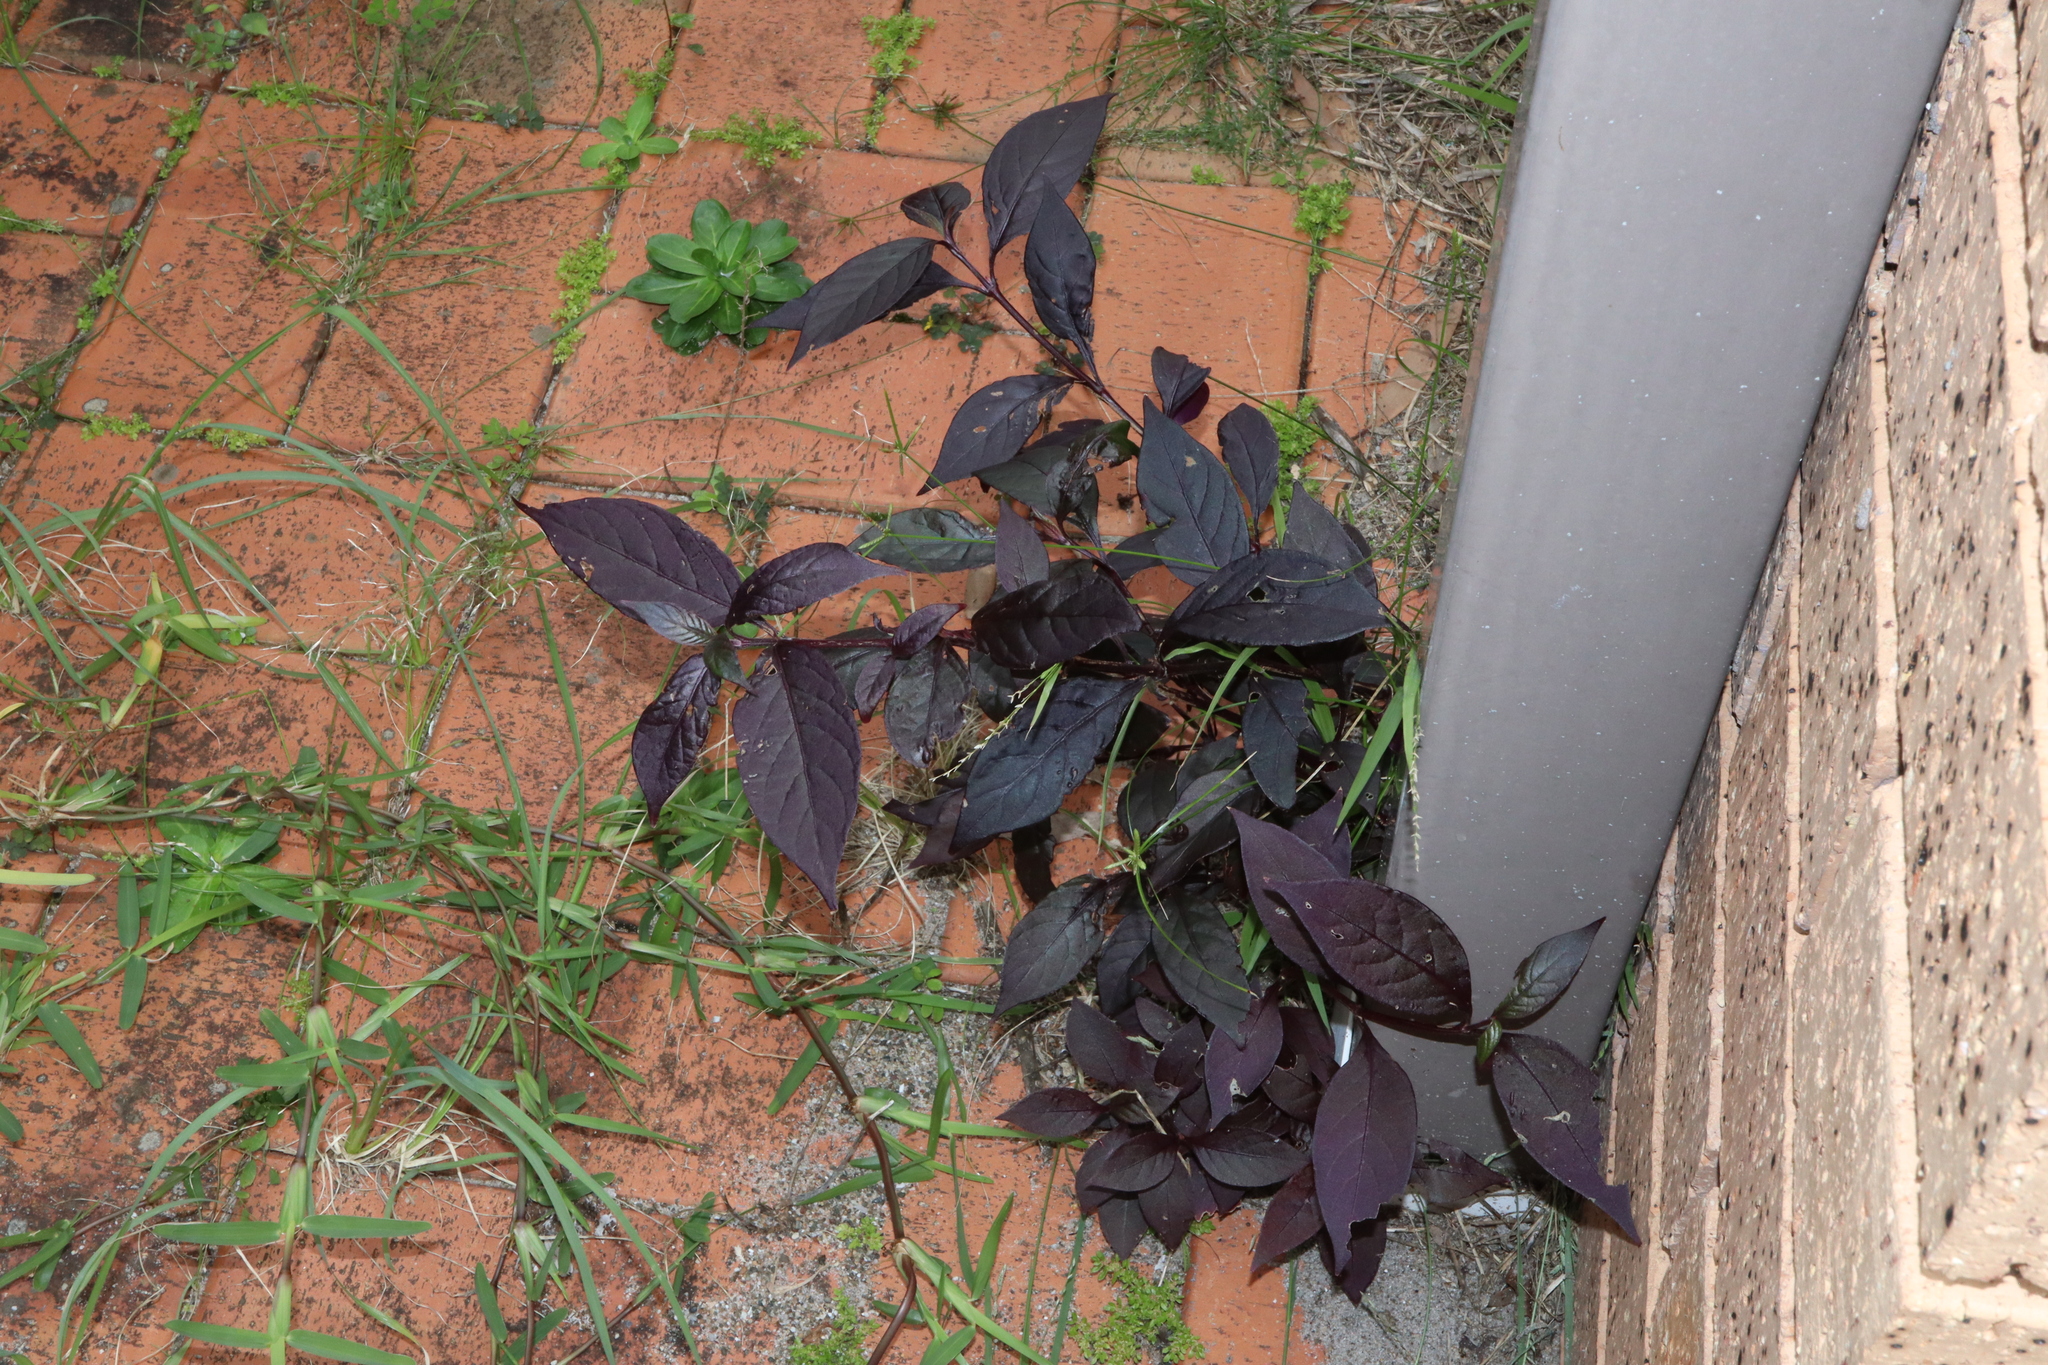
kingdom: Plantae
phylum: Tracheophyta
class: Magnoliopsida
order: Caryophyllales
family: Amaranthaceae
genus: Alternanthera
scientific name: Alternanthera brasiliana
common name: Brazilian joyweed
